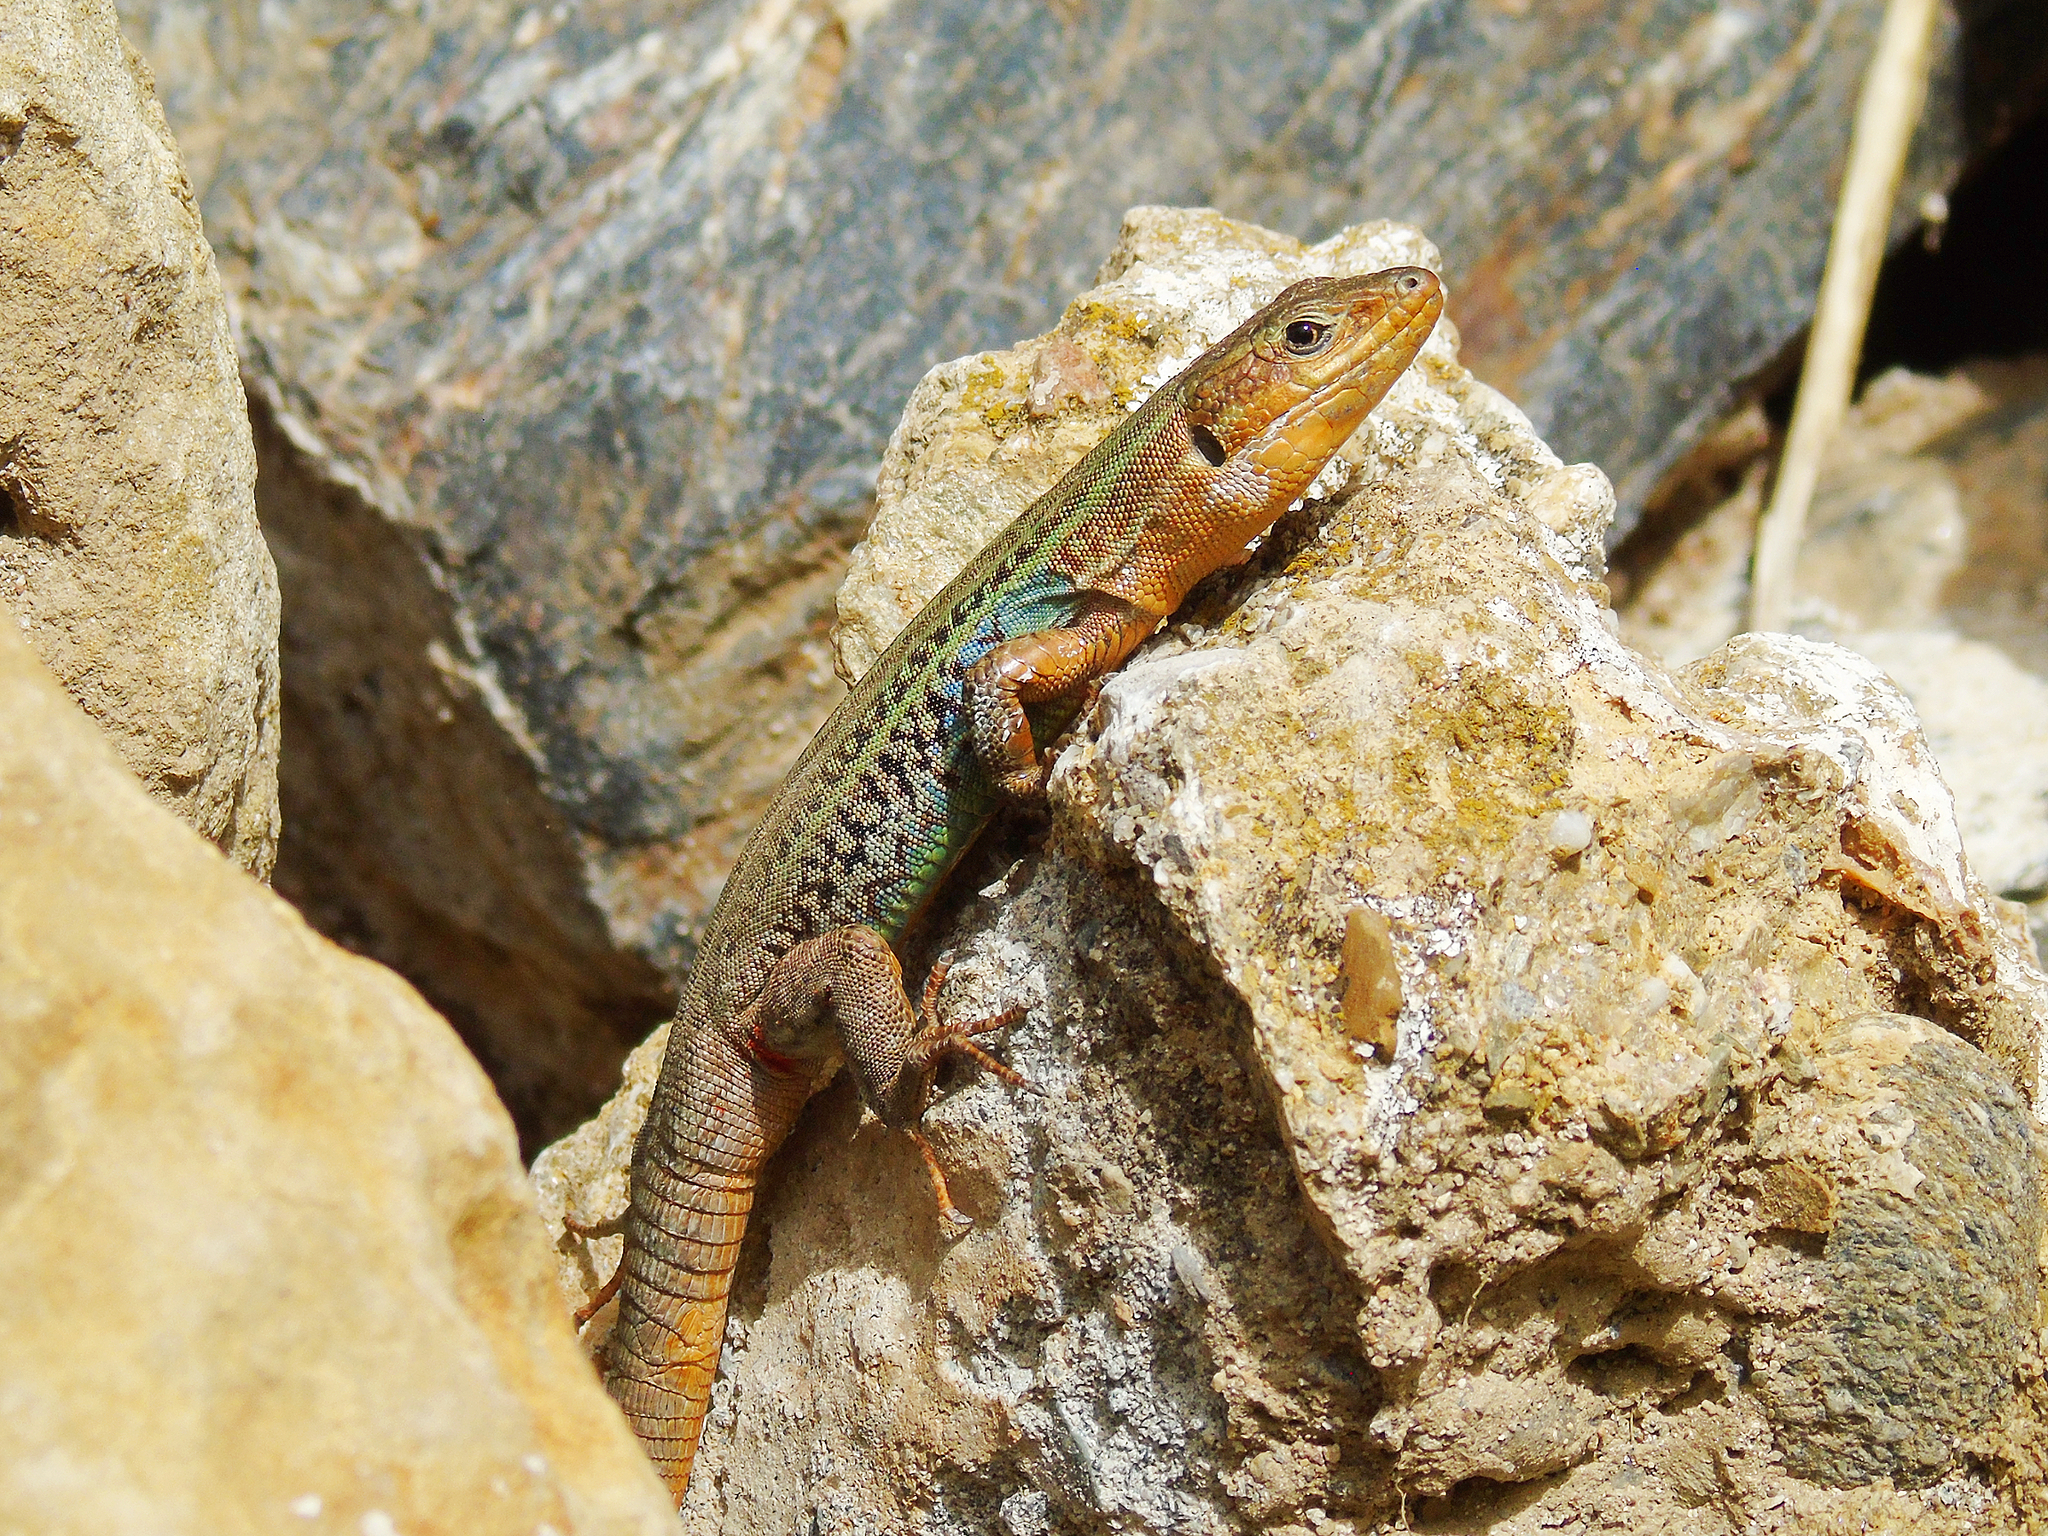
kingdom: Animalia
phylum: Chordata
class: Squamata
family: Lacertidae
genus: Podarcis
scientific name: Podarcis peloponnesiacus
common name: Peloponnese wall lizard
